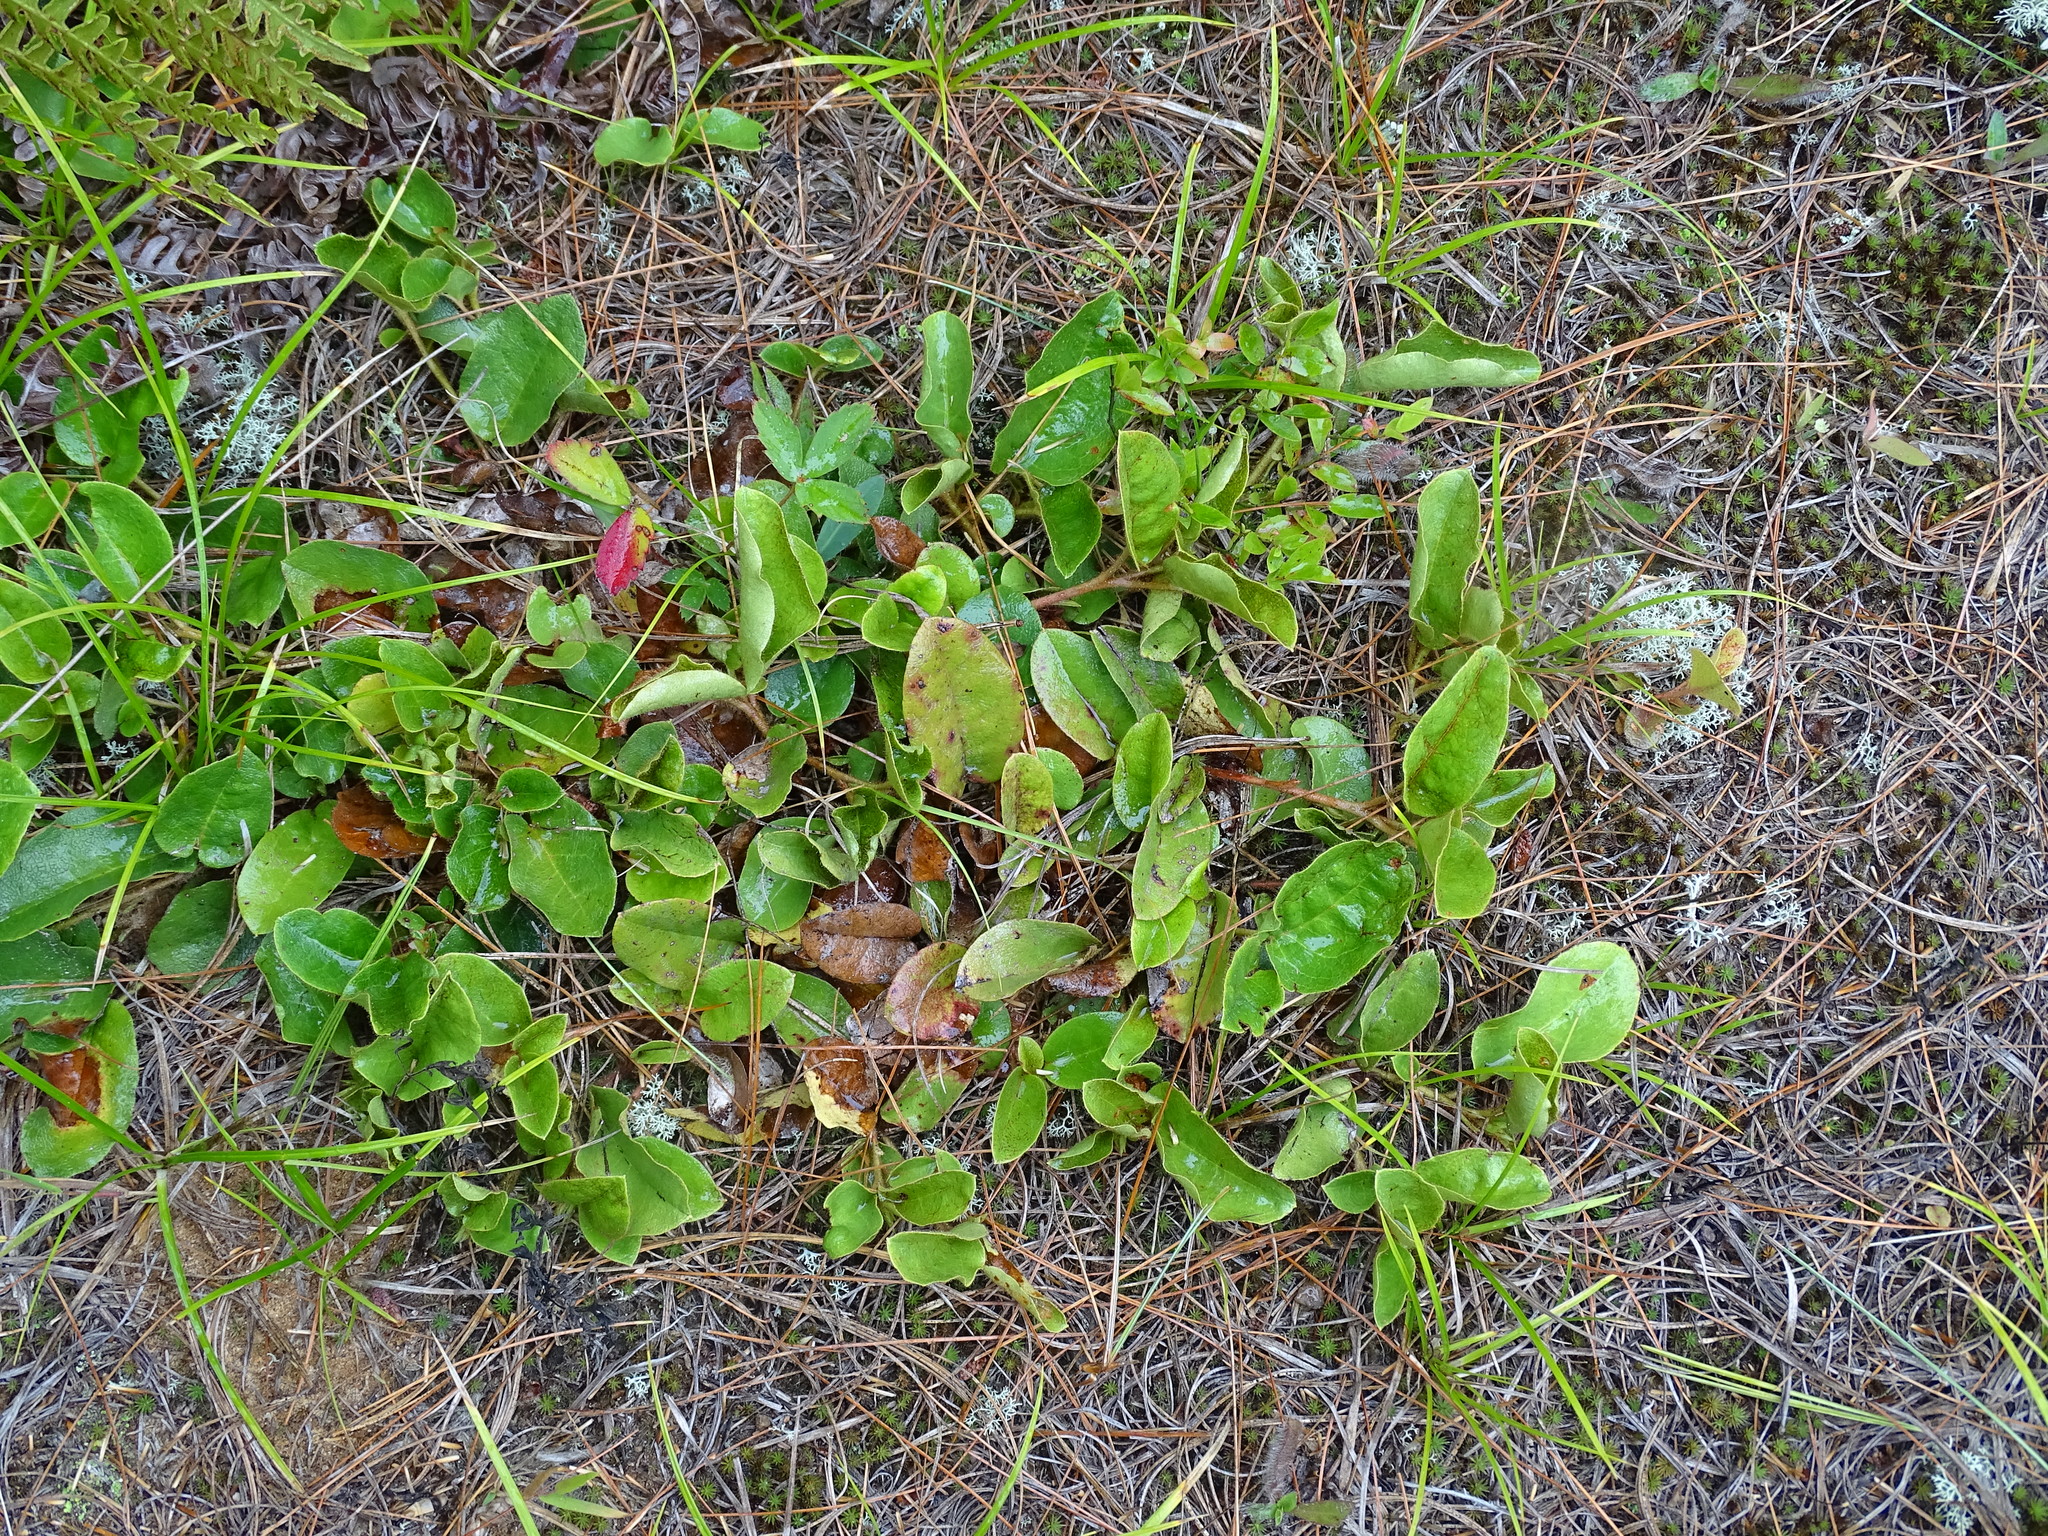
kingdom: Plantae
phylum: Tracheophyta
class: Magnoliopsida
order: Ericales
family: Ericaceae
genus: Epigaea
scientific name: Epigaea repens
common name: Gravelroot
